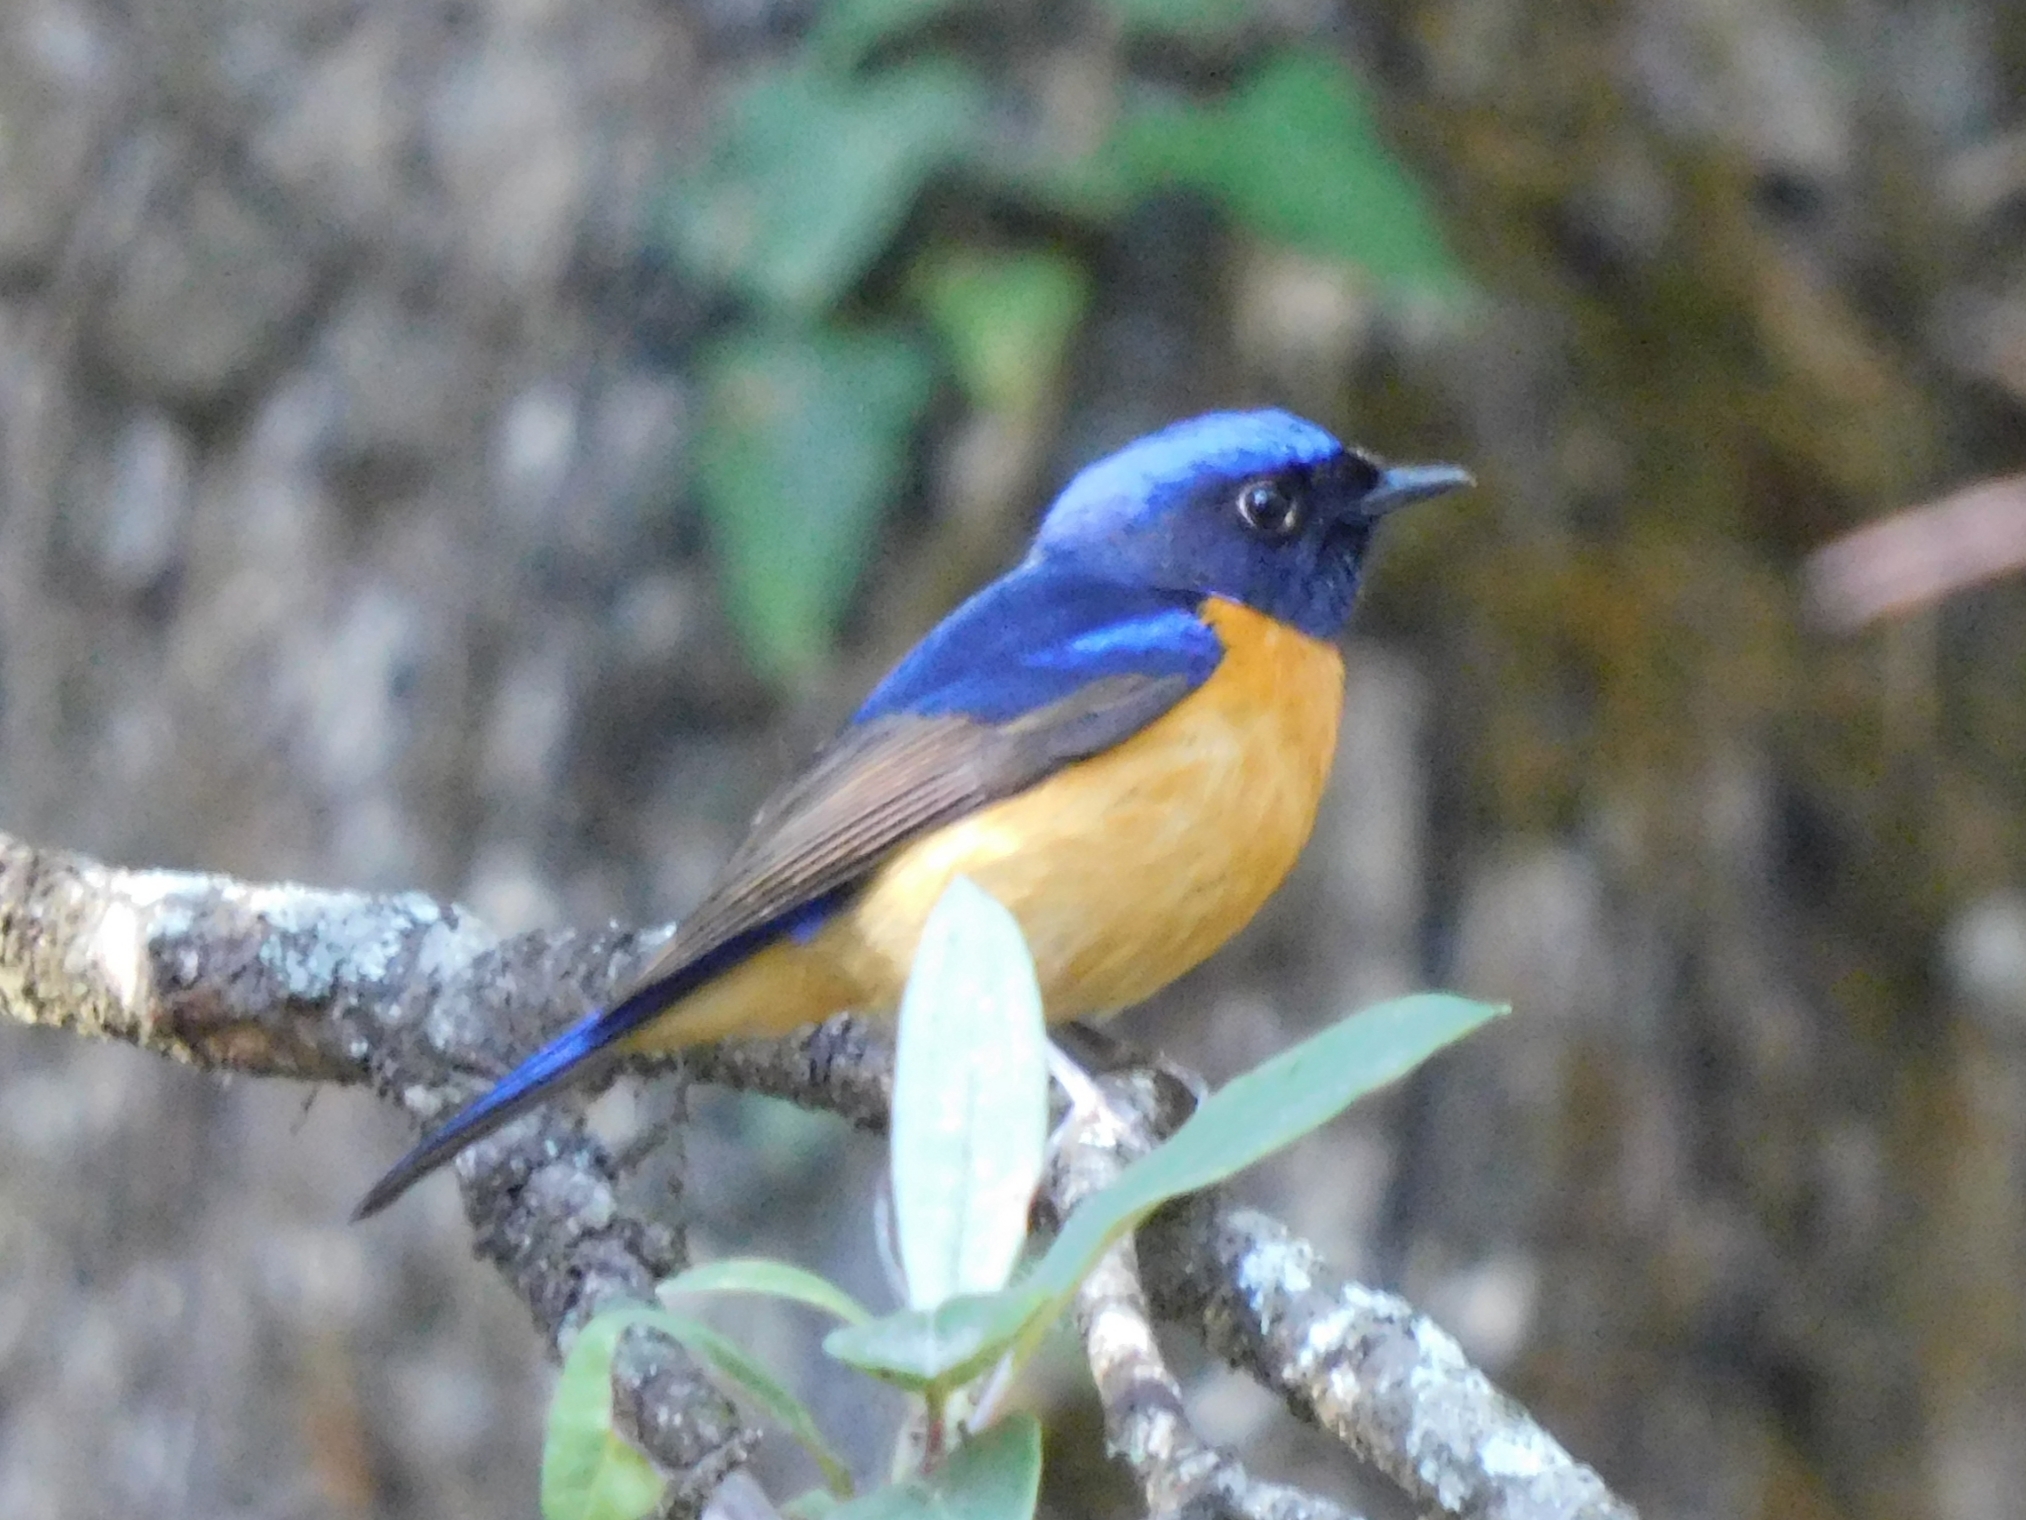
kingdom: Animalia
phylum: Chordata
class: Aves
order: Passeriformes
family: Muscicapidae
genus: Niltava
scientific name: Niltava sundara
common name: Rufous-bellied niltava
